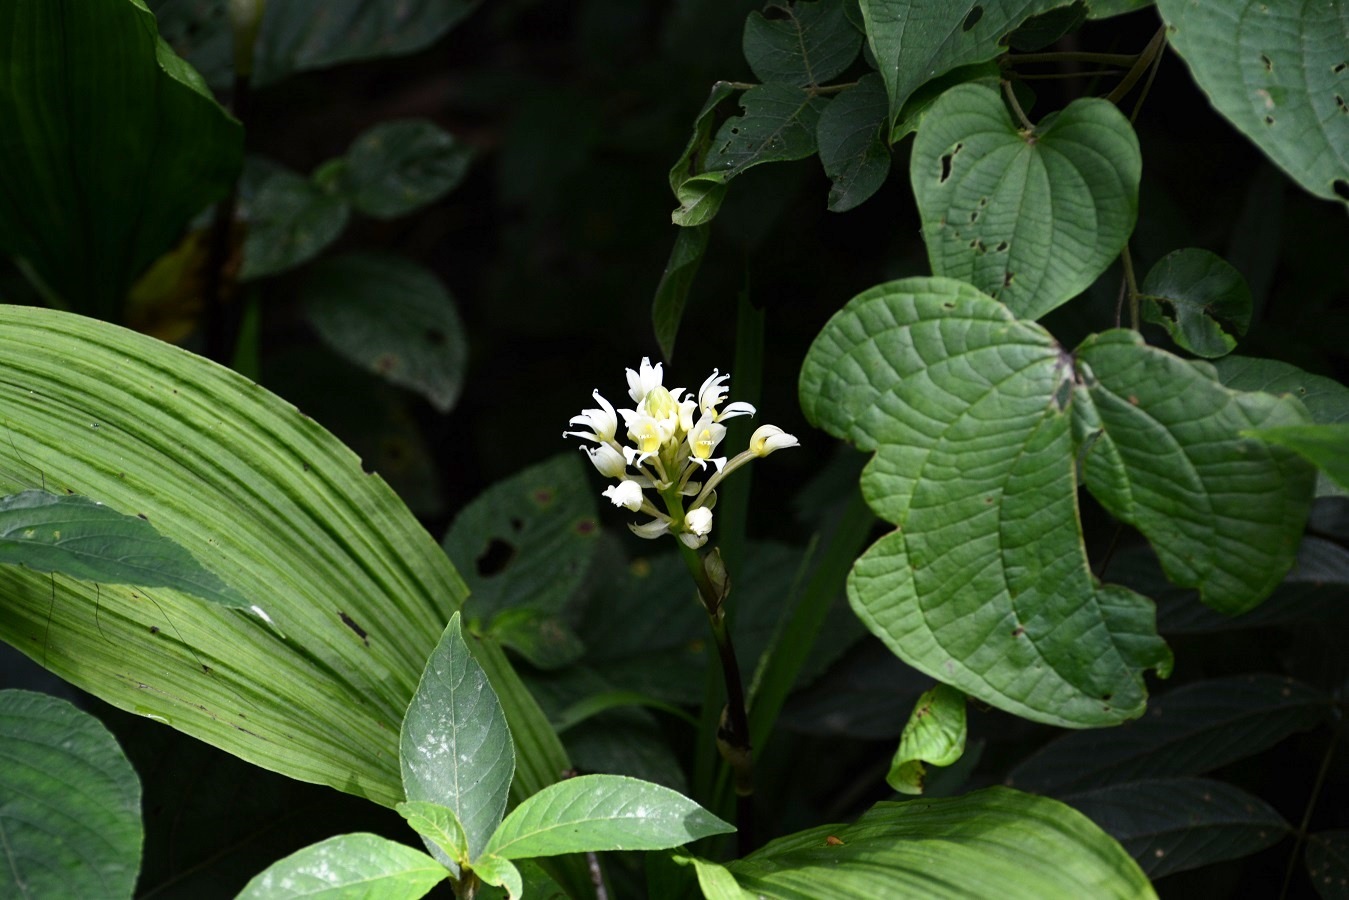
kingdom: Plantae
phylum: Tracheophyta
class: Liliopsida
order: Asparagales
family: Orchidaceae
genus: Govenia
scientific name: Govenia alba
